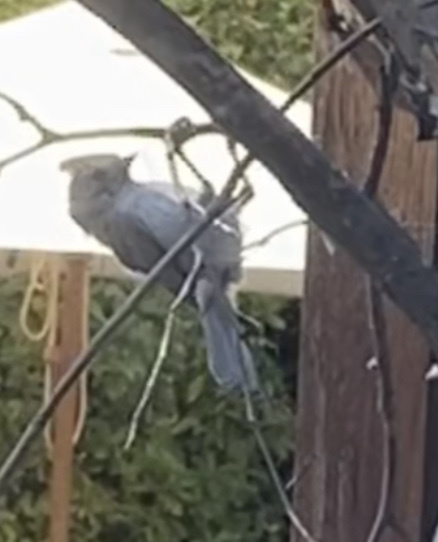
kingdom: Animalia
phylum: Chordata
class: Aves
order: Passeriformes
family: Paridae
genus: Baeolophus
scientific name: Baeolophus inornatus
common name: Oak titmouse
